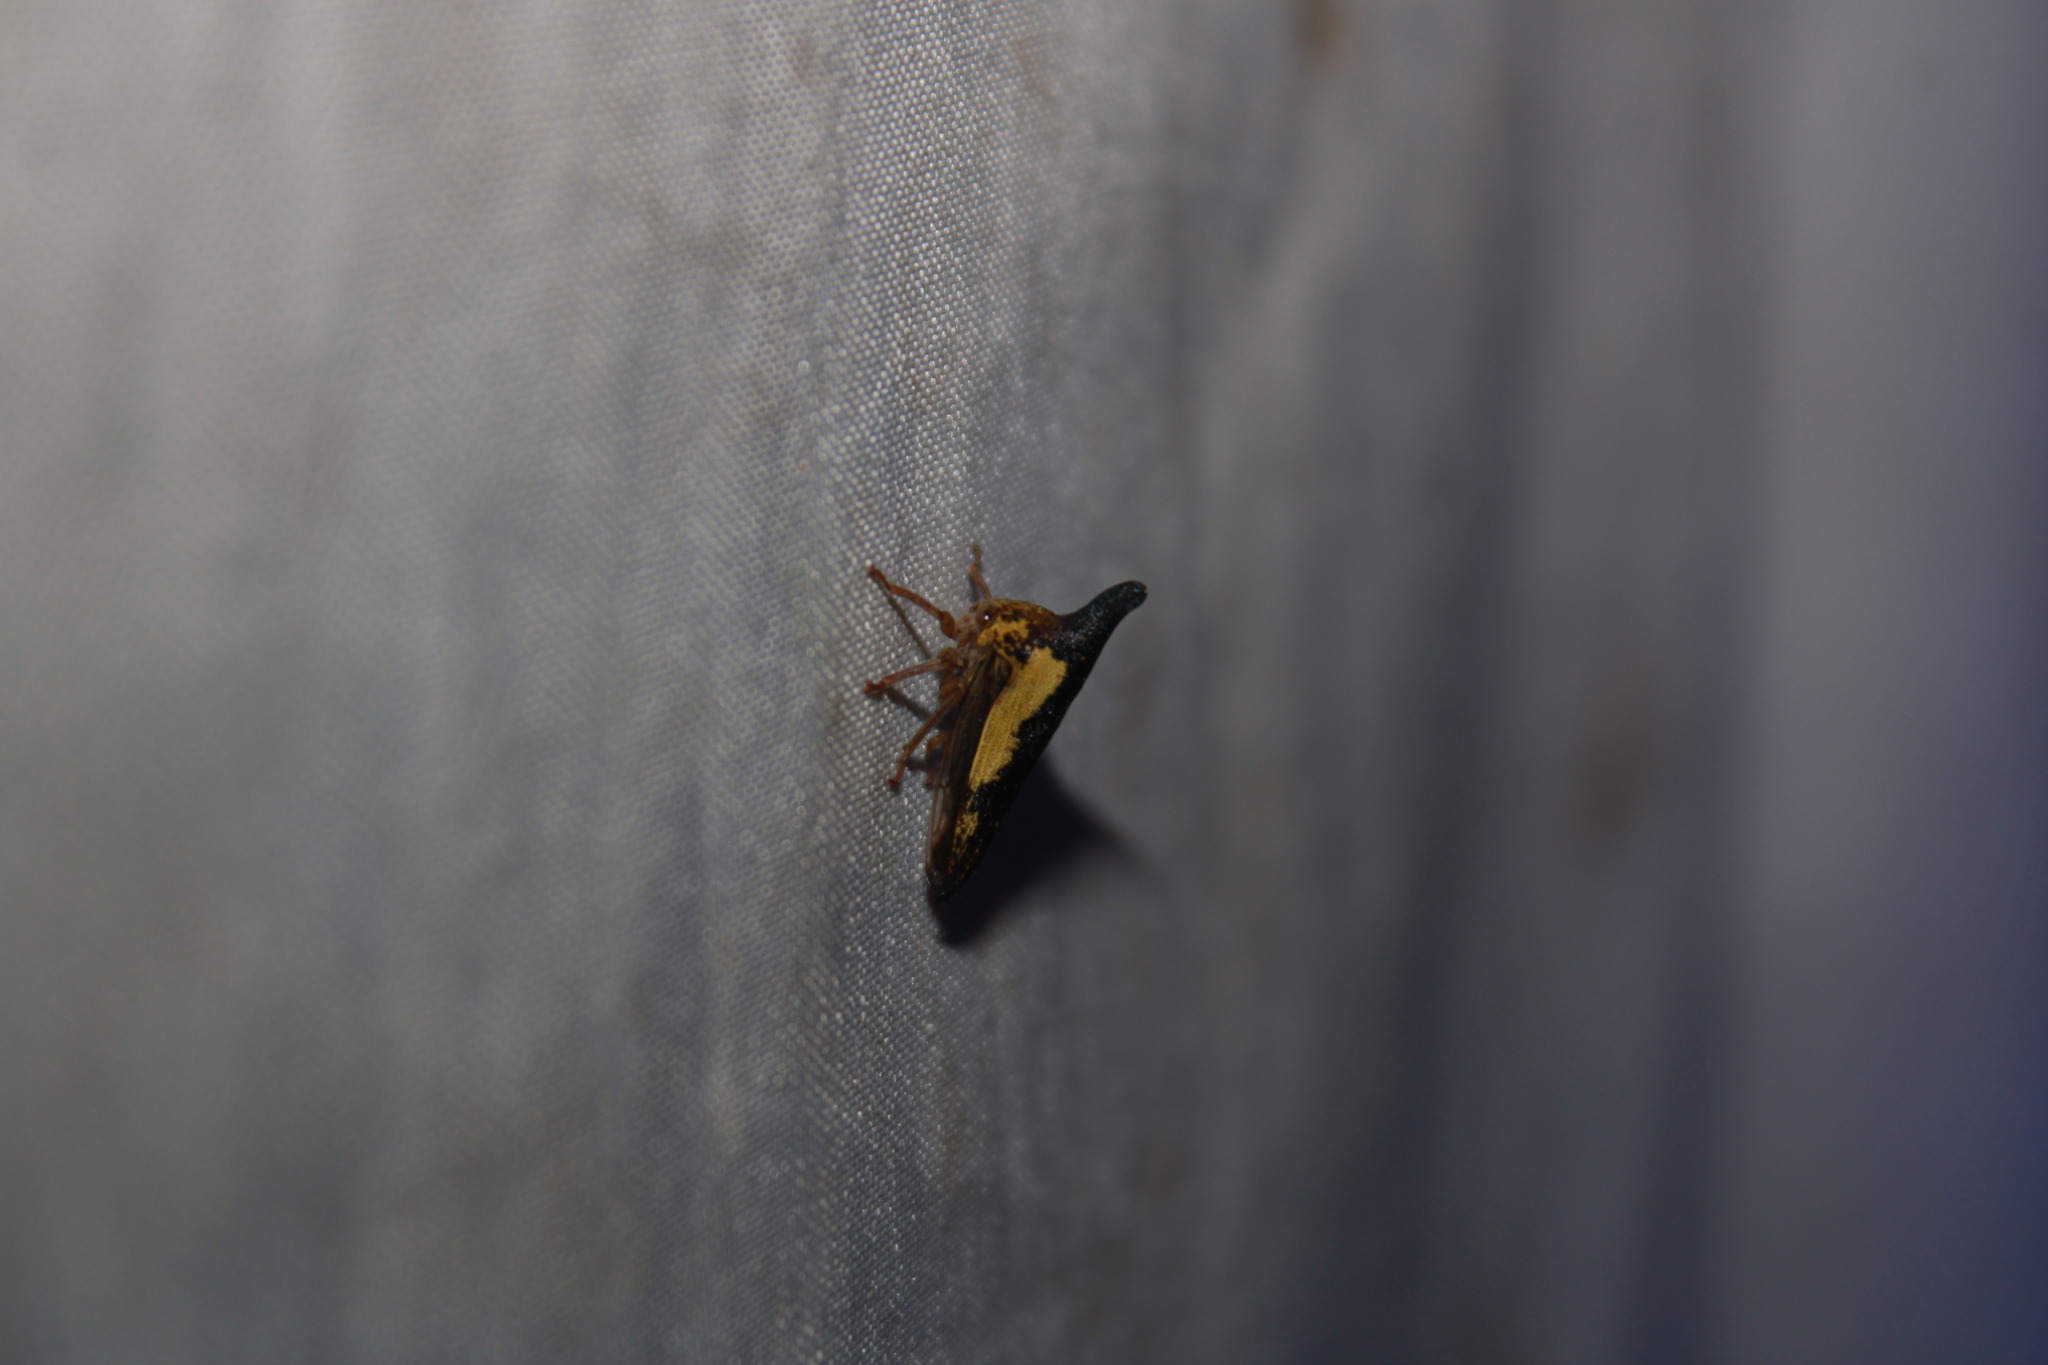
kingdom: Animalia
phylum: Arthropoda
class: Insecta
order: Hemiptera
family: Membracidae
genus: Thelia
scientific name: Thelia bimaculata
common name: Locust treehopper
